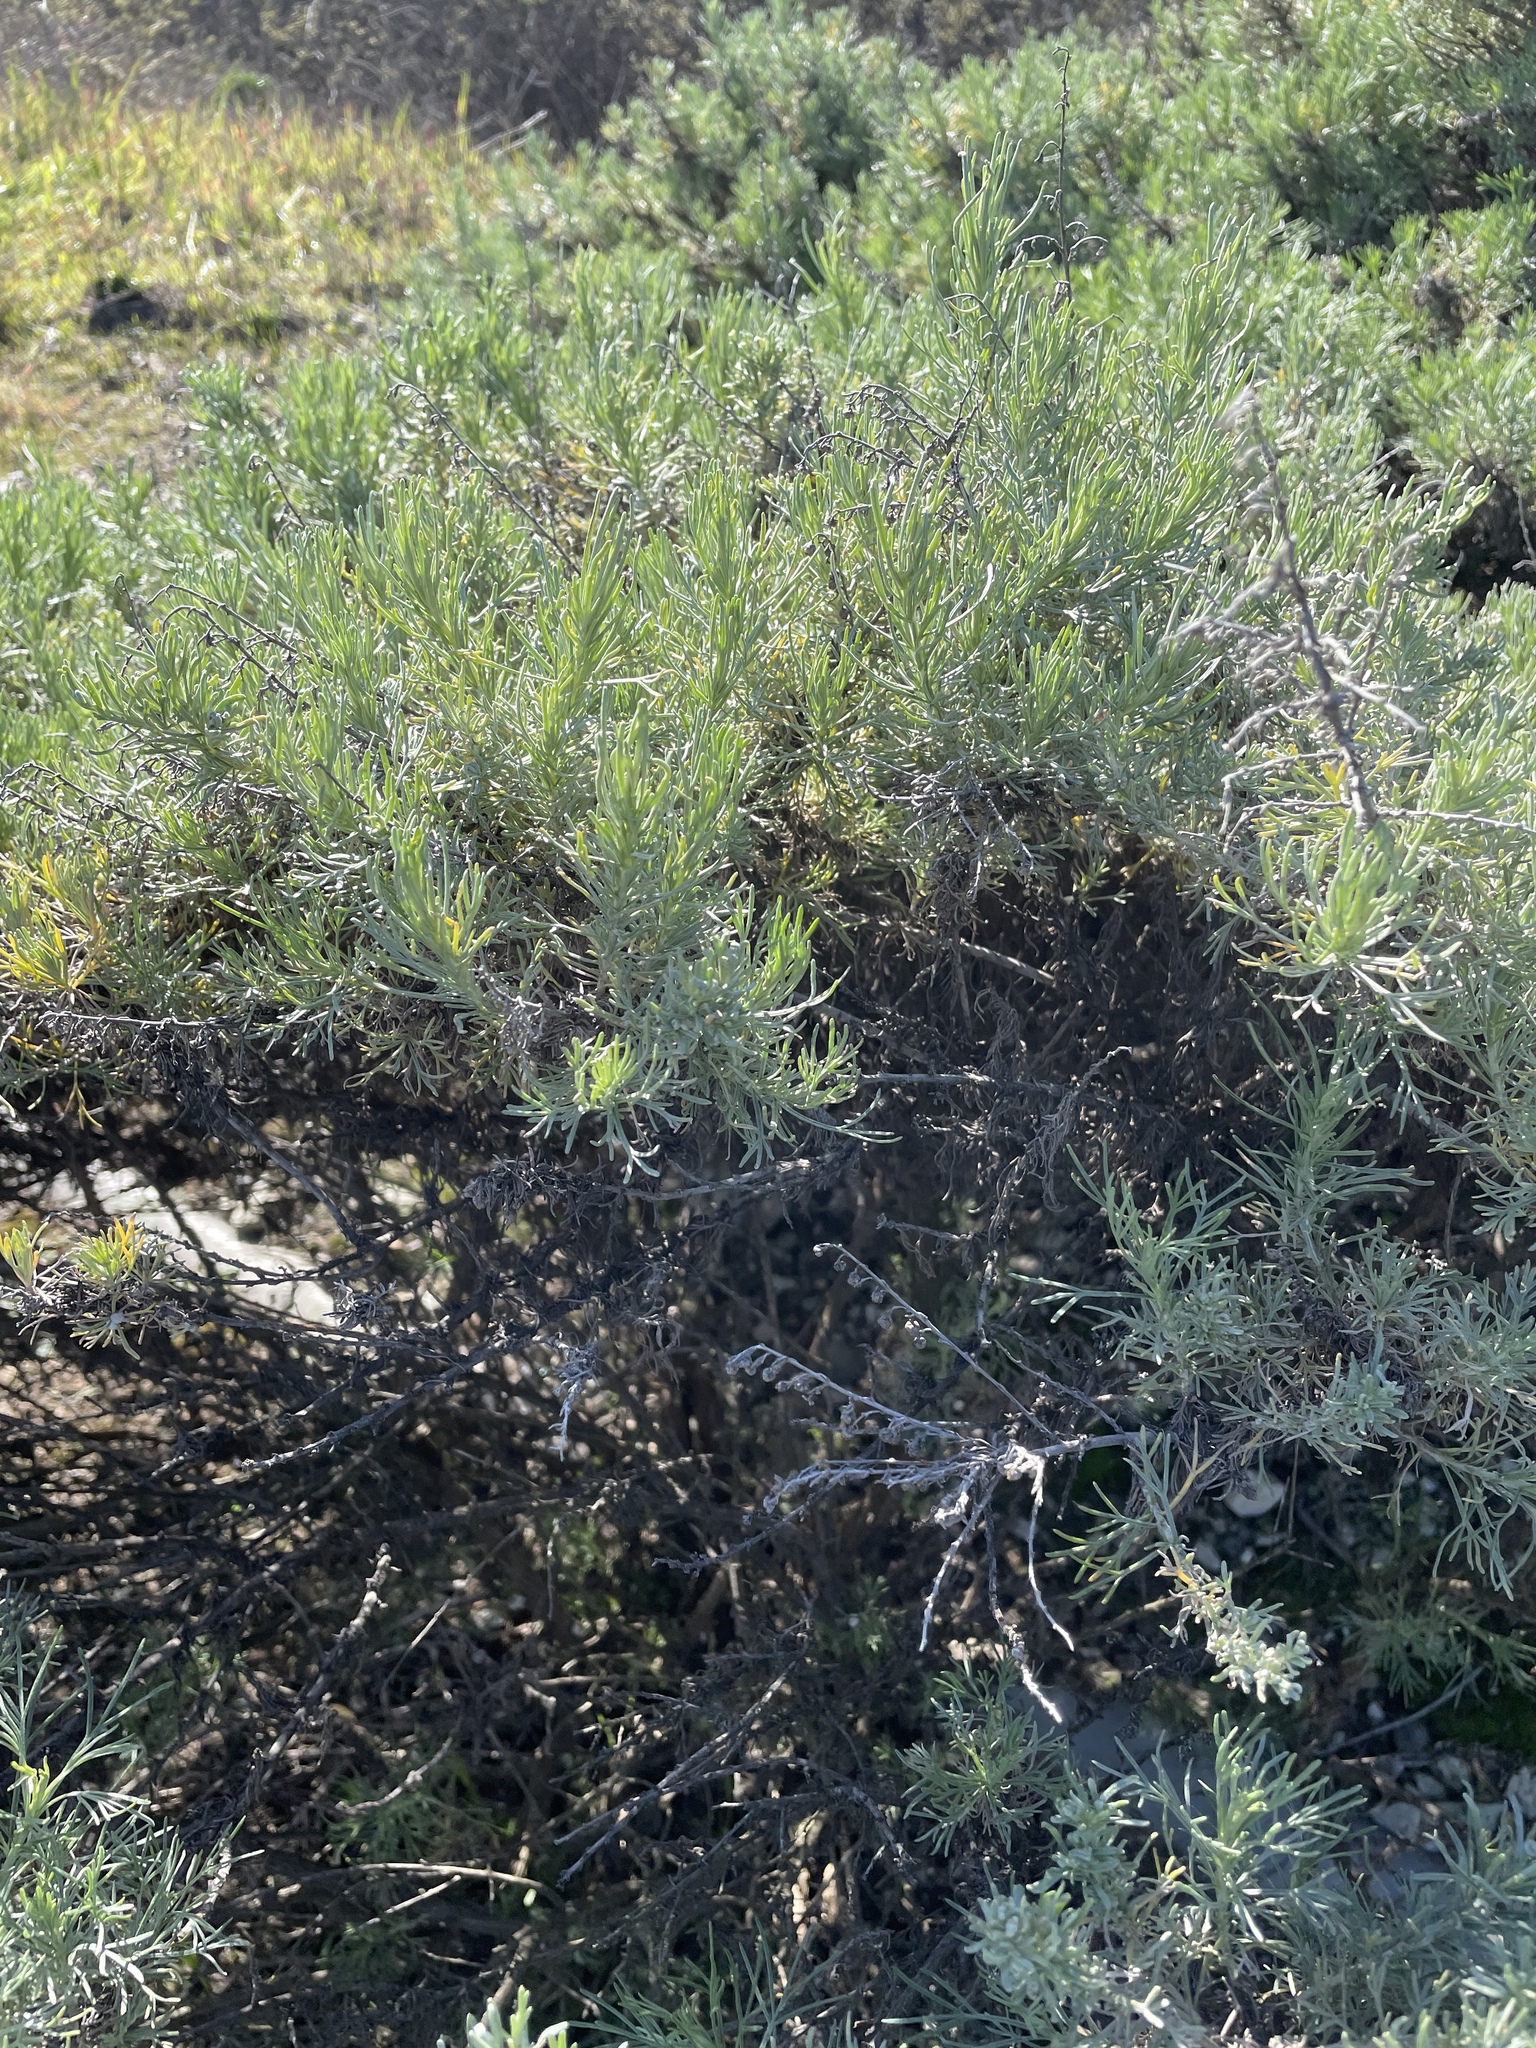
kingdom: Plantae
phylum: Tracheophyta
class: Magnoliopsida
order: Asterales
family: Asteraceae
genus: Artemisia
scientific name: Artemisia californica
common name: California sagebrush
